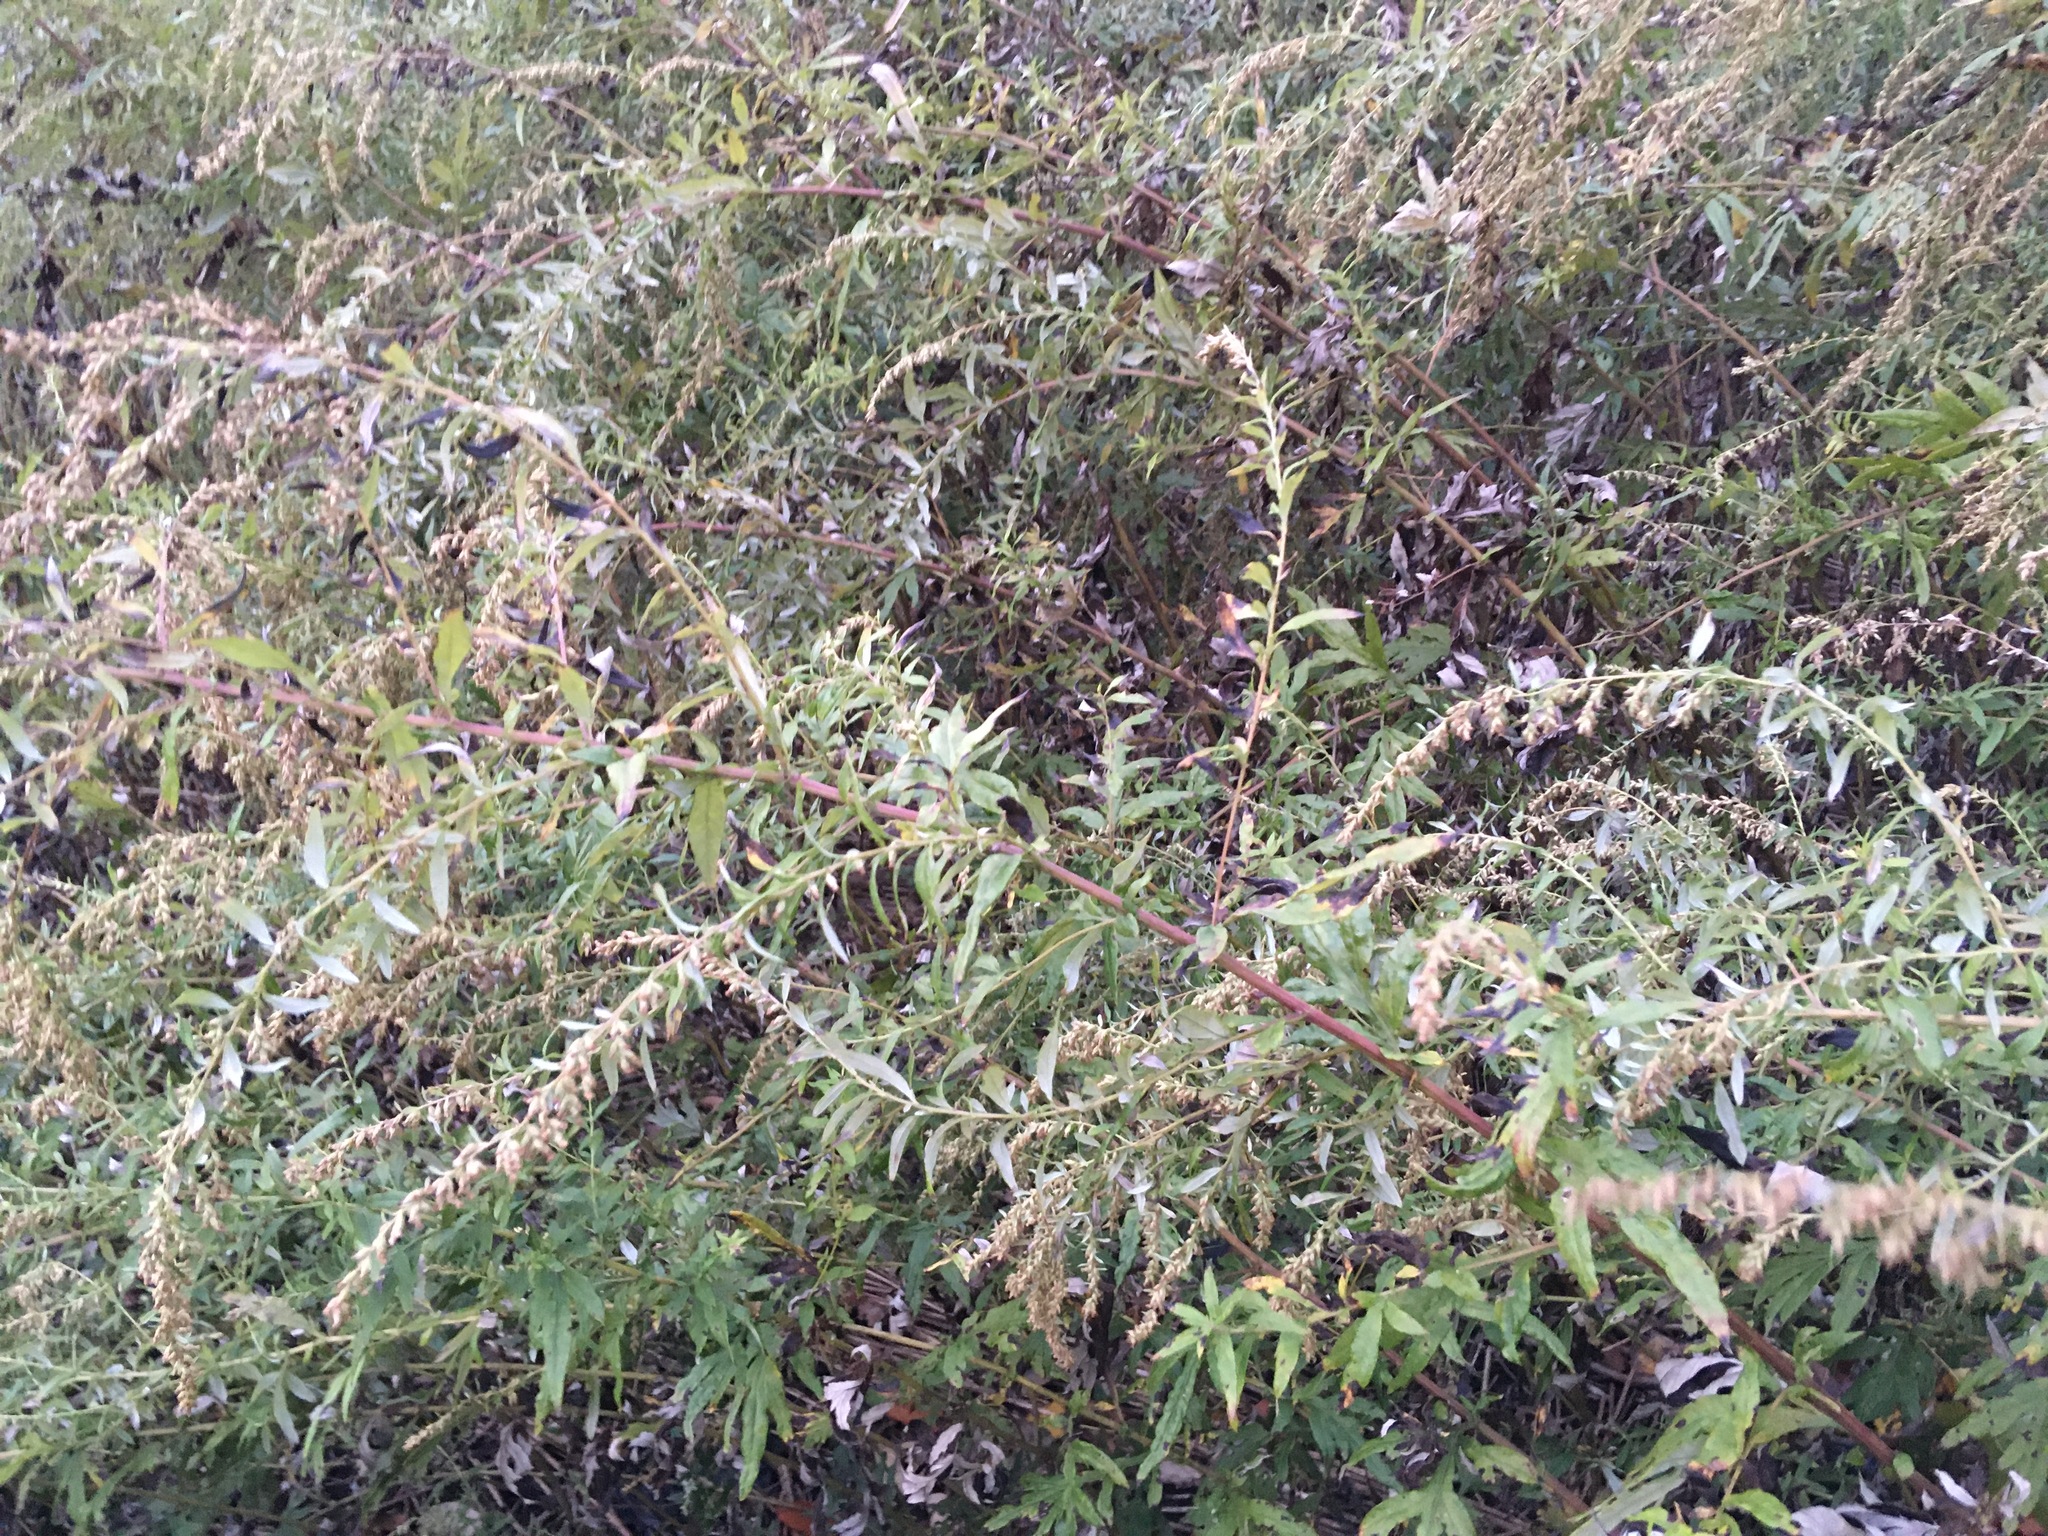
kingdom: Plantae
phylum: Tracheophyta
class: Magnoliopsida
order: Asterales
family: Asteraceae
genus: Artemisia
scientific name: Artemisia vulgaris
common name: Mugwort
